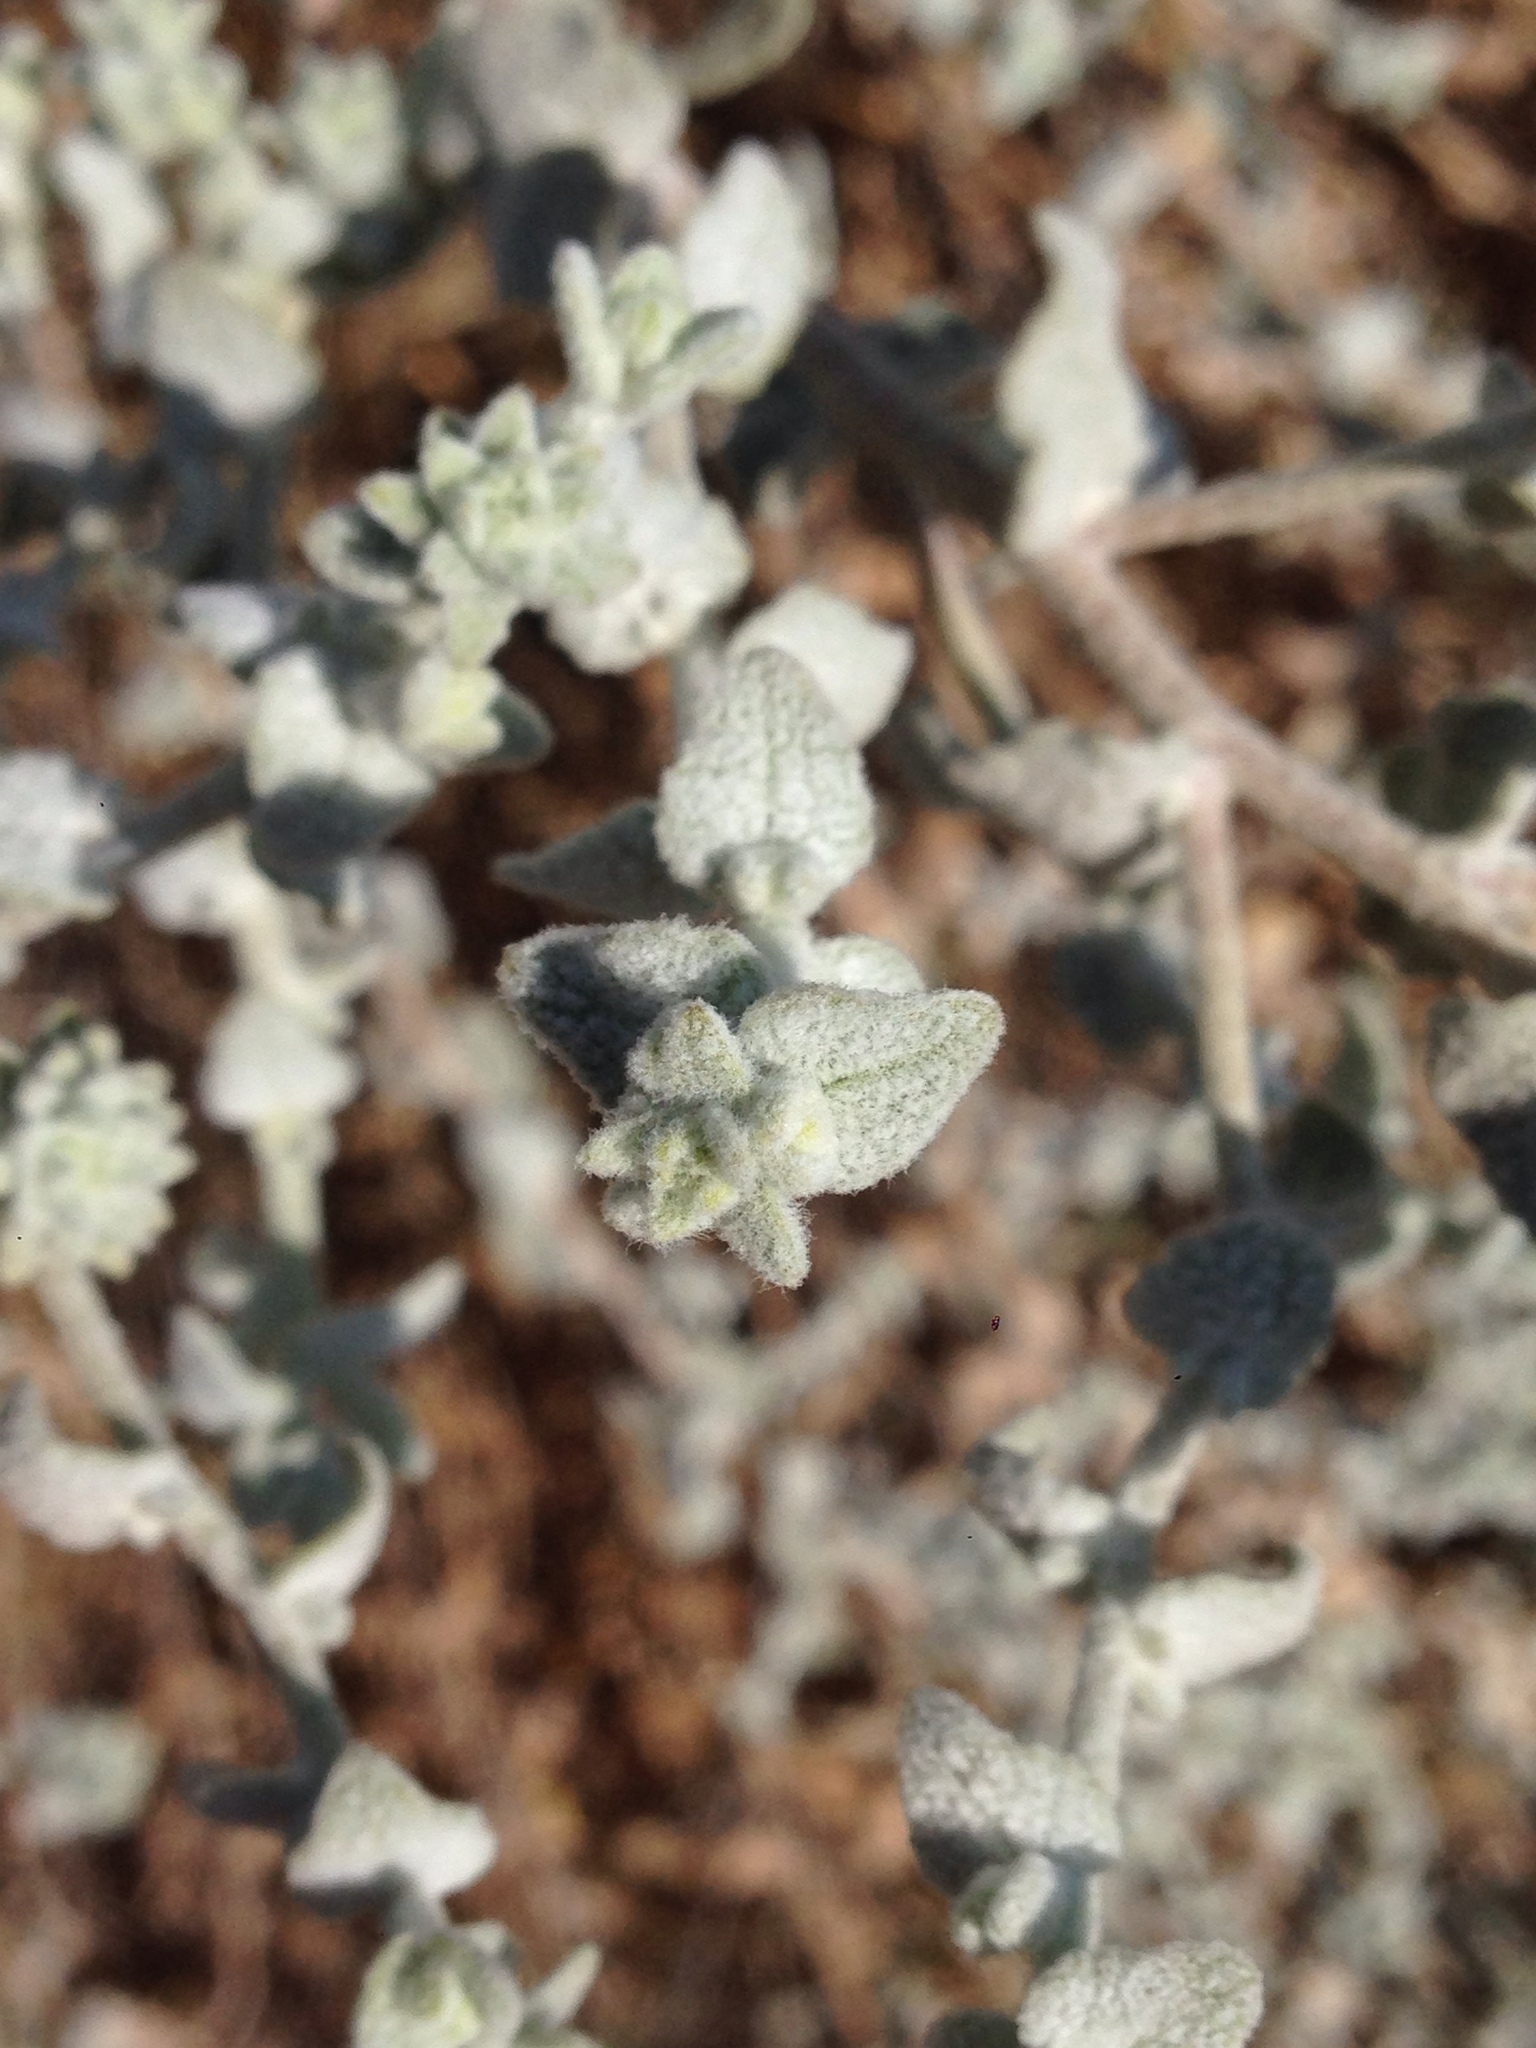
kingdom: Plantae
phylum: Tracheophyta
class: Magnoliopsida
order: Asterales
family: Asteraceae
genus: Brickellia
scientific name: Brickellia nevinii
